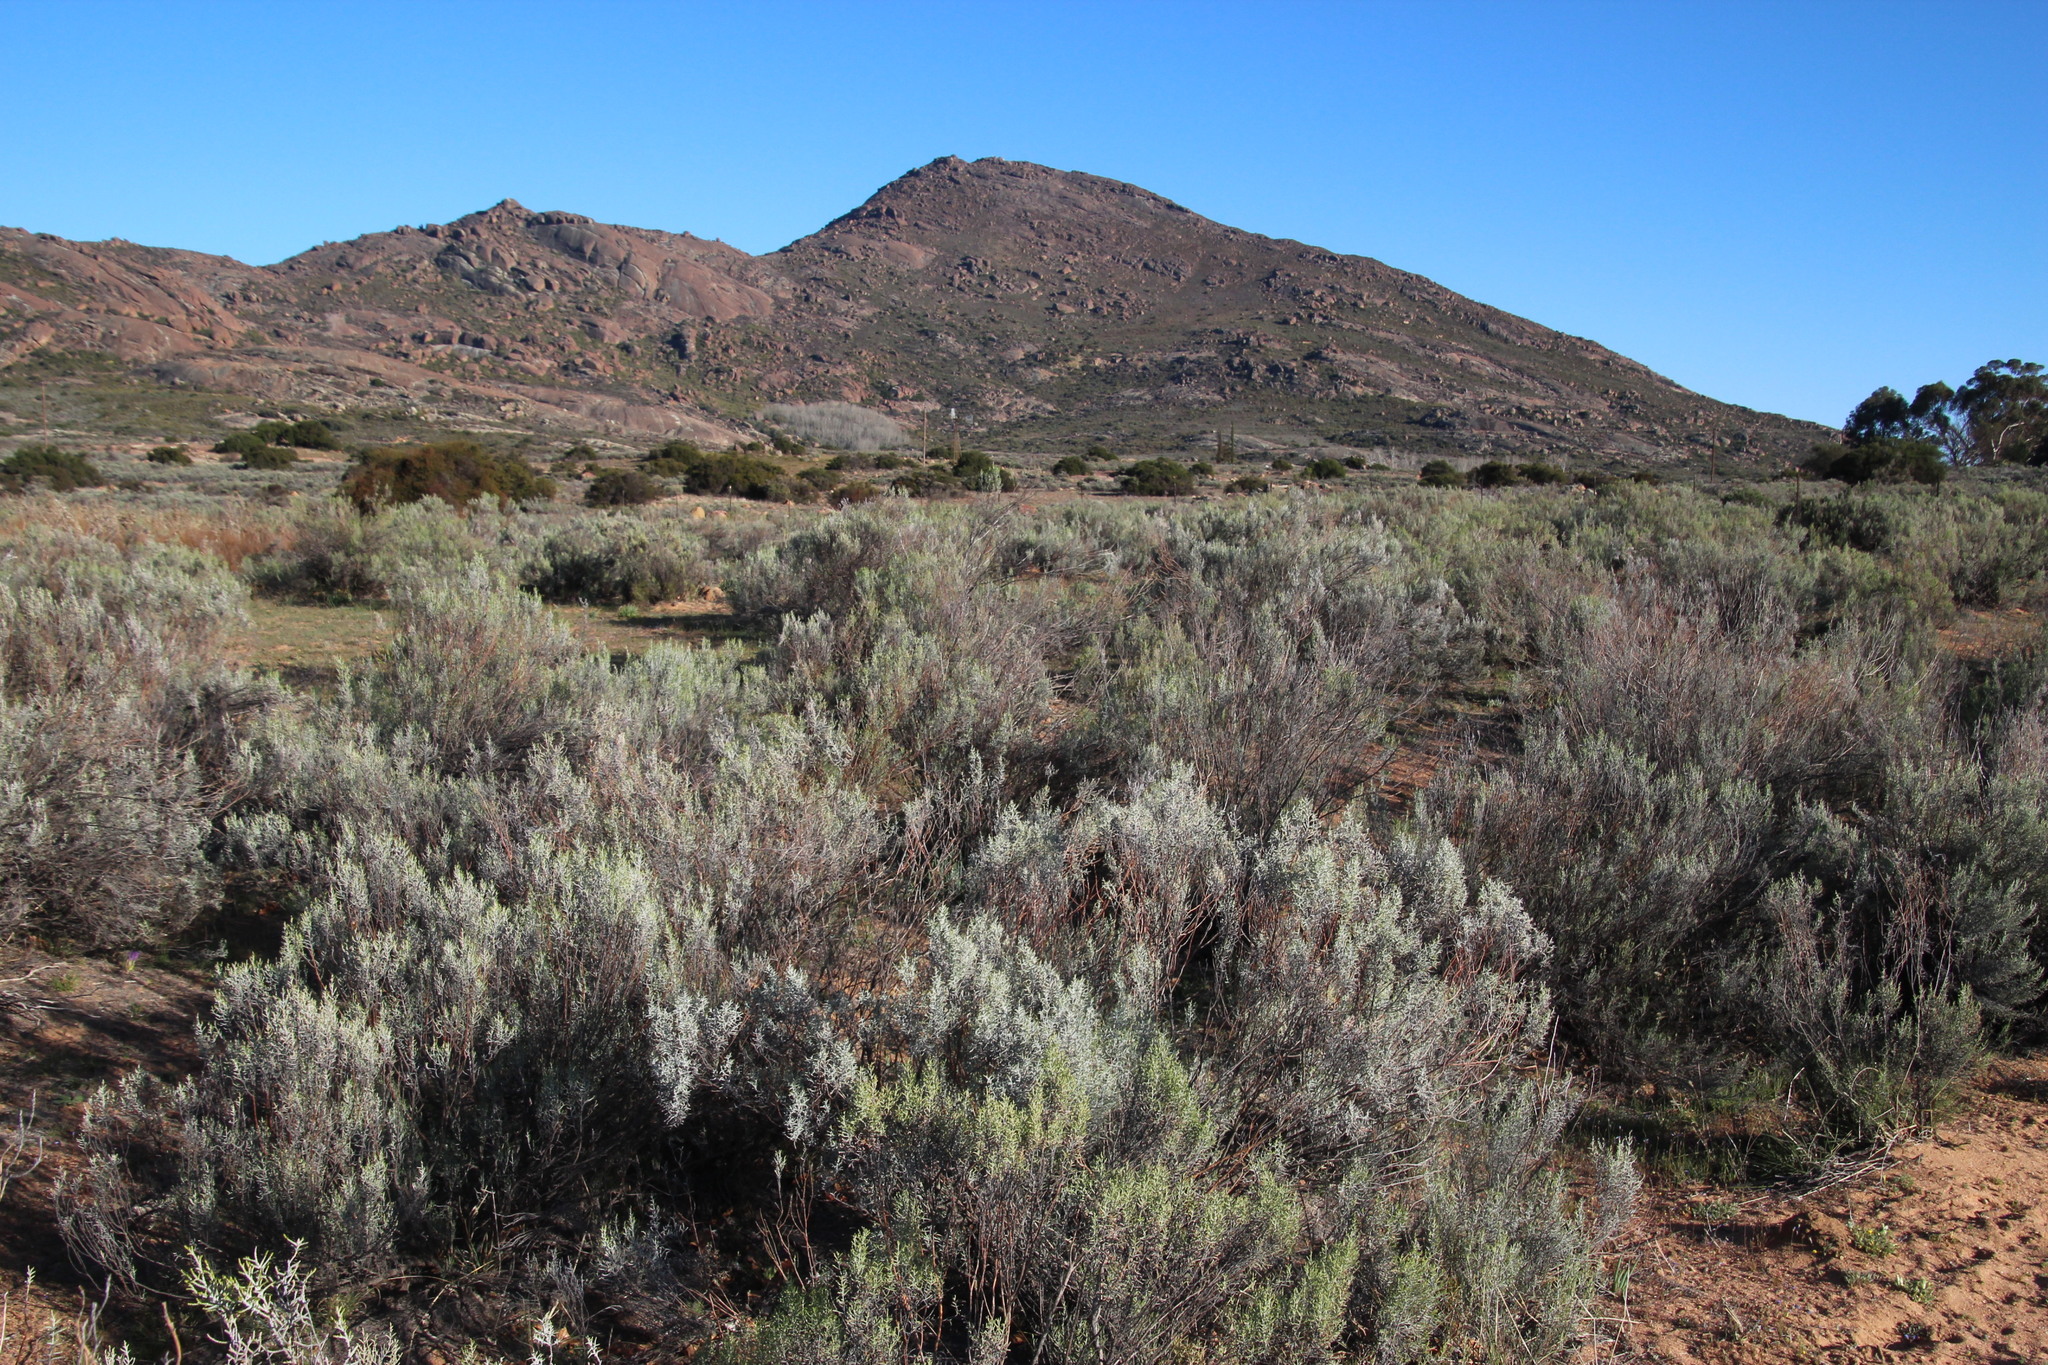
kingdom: Plantae
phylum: Tracheophyta
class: Magnoliopsida
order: Asterales
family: Asteraceae
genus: Dicerothamnus
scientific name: Dicerothamnus rhinocerotis
